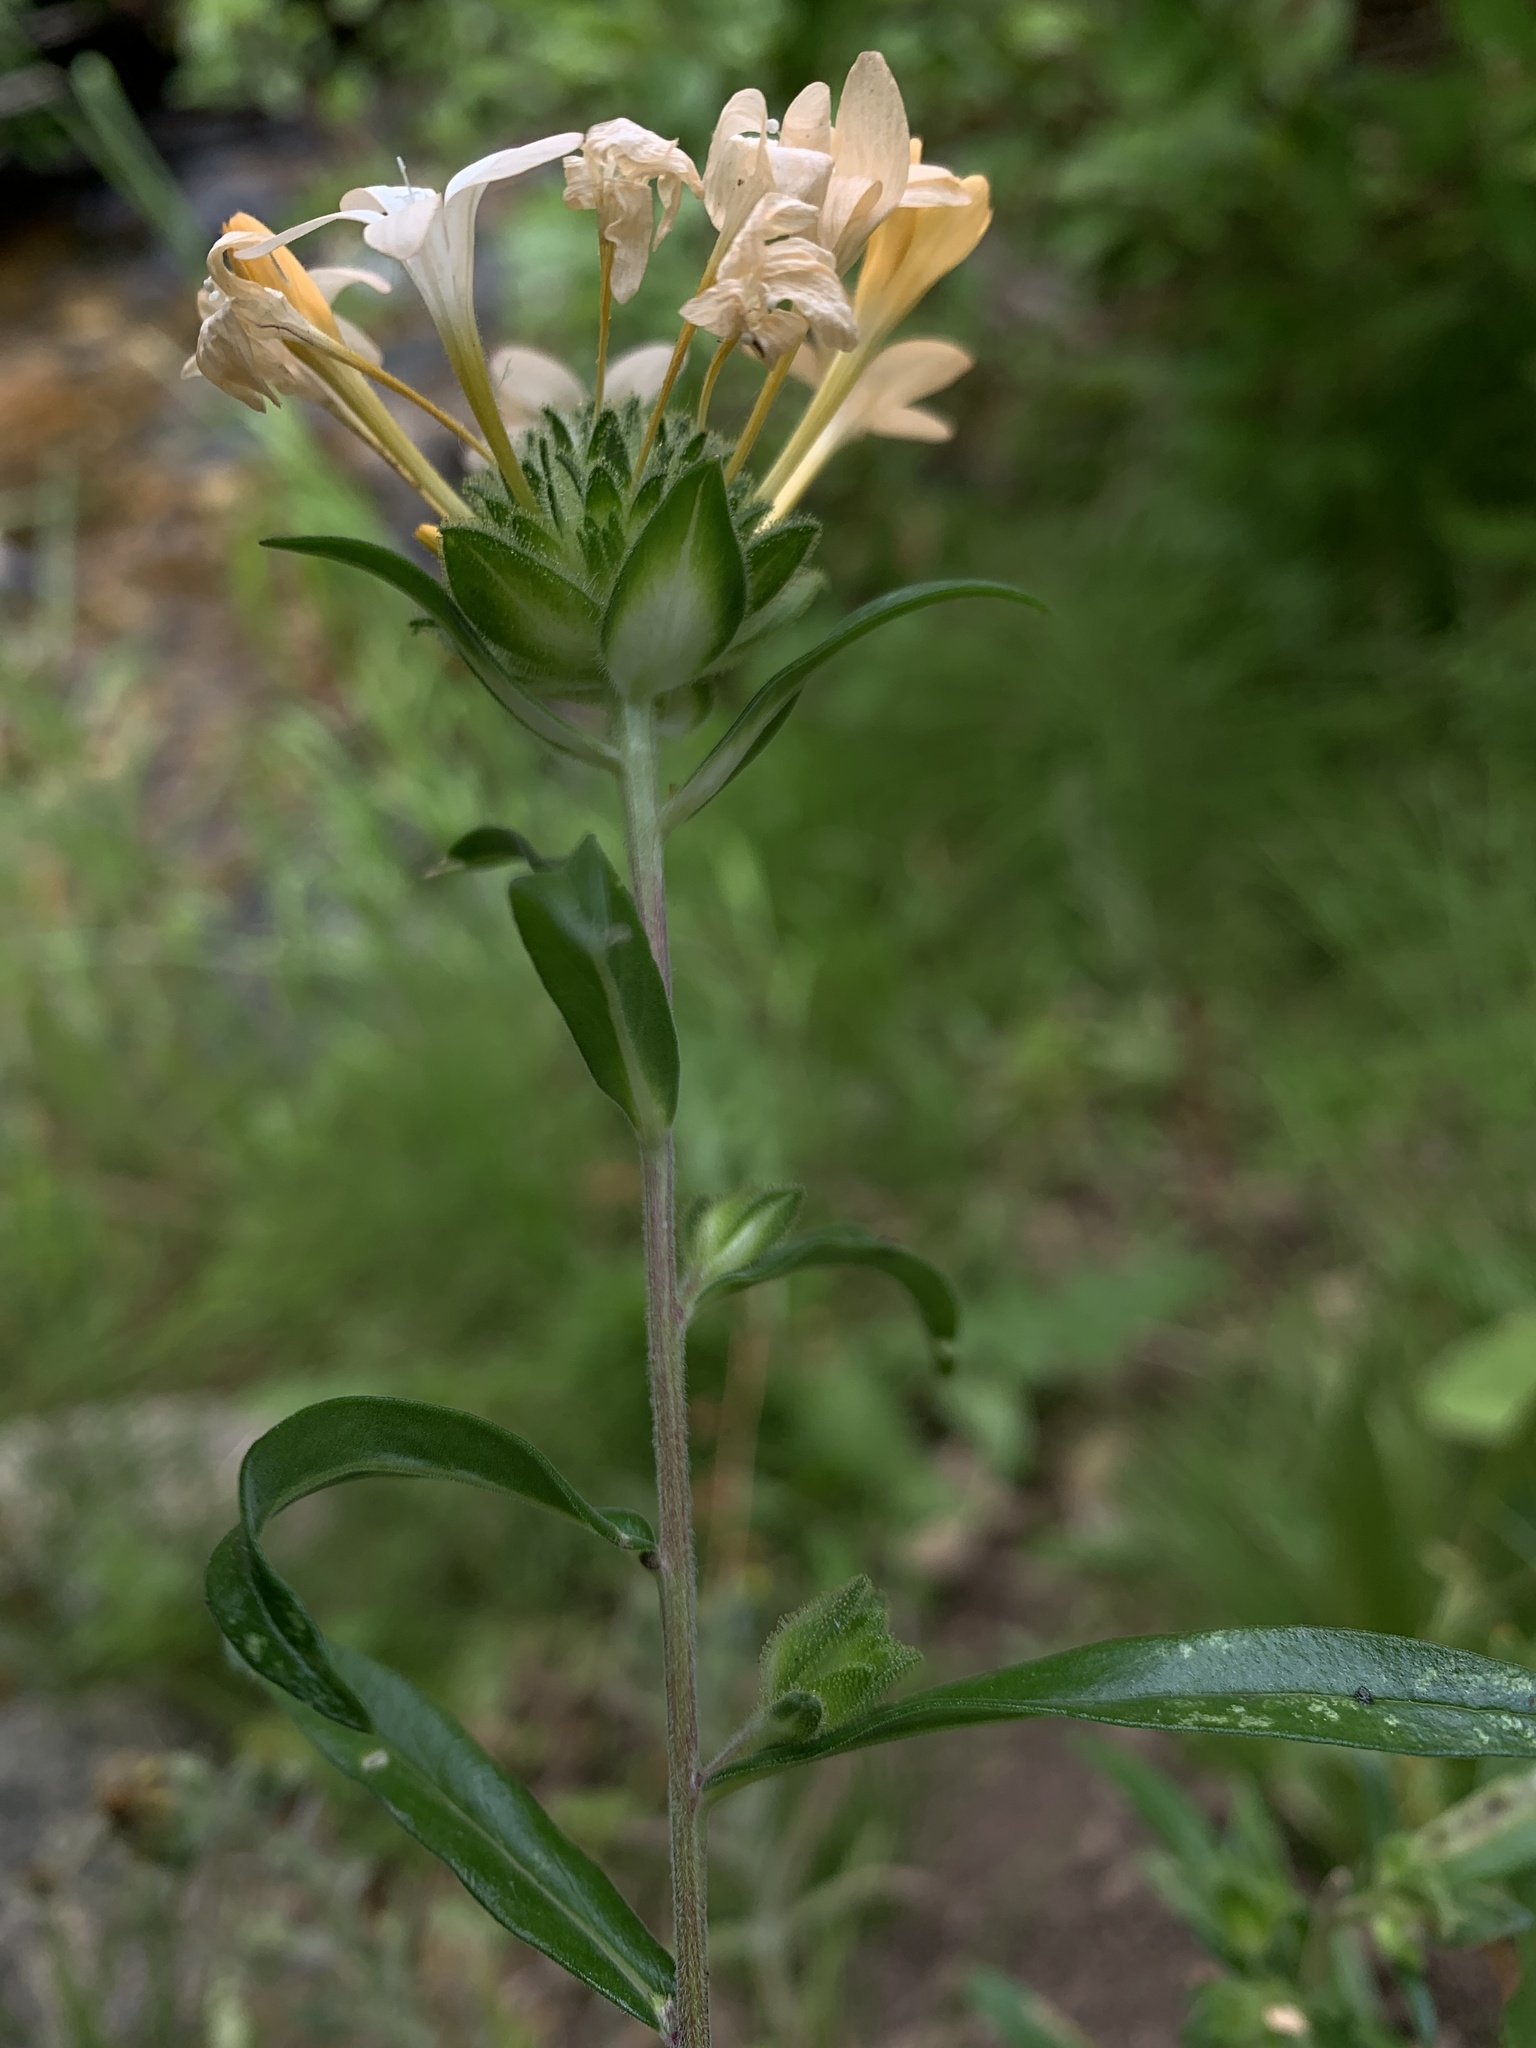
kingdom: Plantae
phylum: Tracheophyta
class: Magnoliopsida
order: Ericales
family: Polemoniaceae
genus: Collomia
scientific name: Collomia grandiflora
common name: California strawflower
